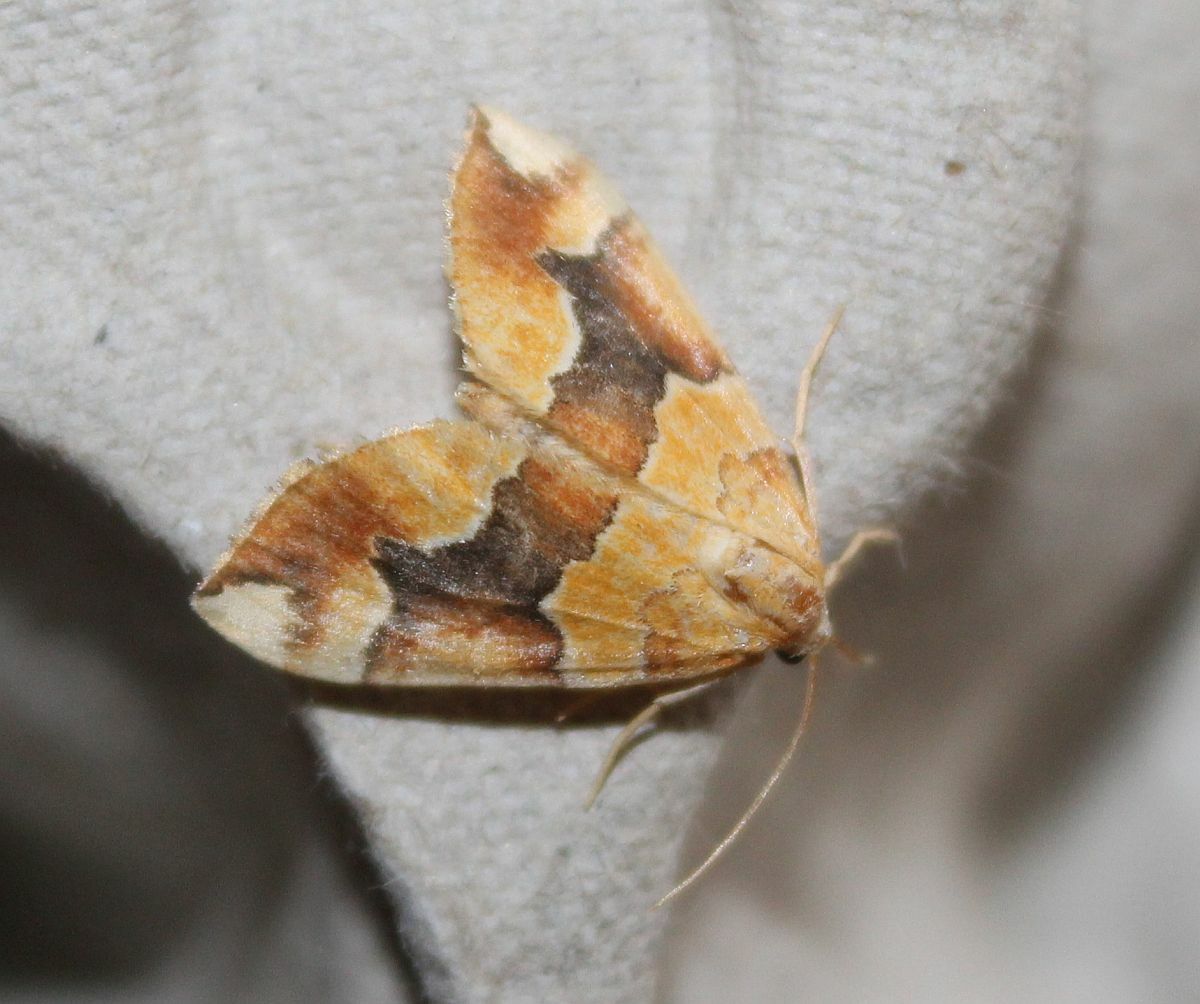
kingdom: Animalia
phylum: Arthropoda
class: Insecta
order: Lepidoptera
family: Geometridae
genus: Cidaria
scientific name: Cidaria fulvata
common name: Barred yellow
